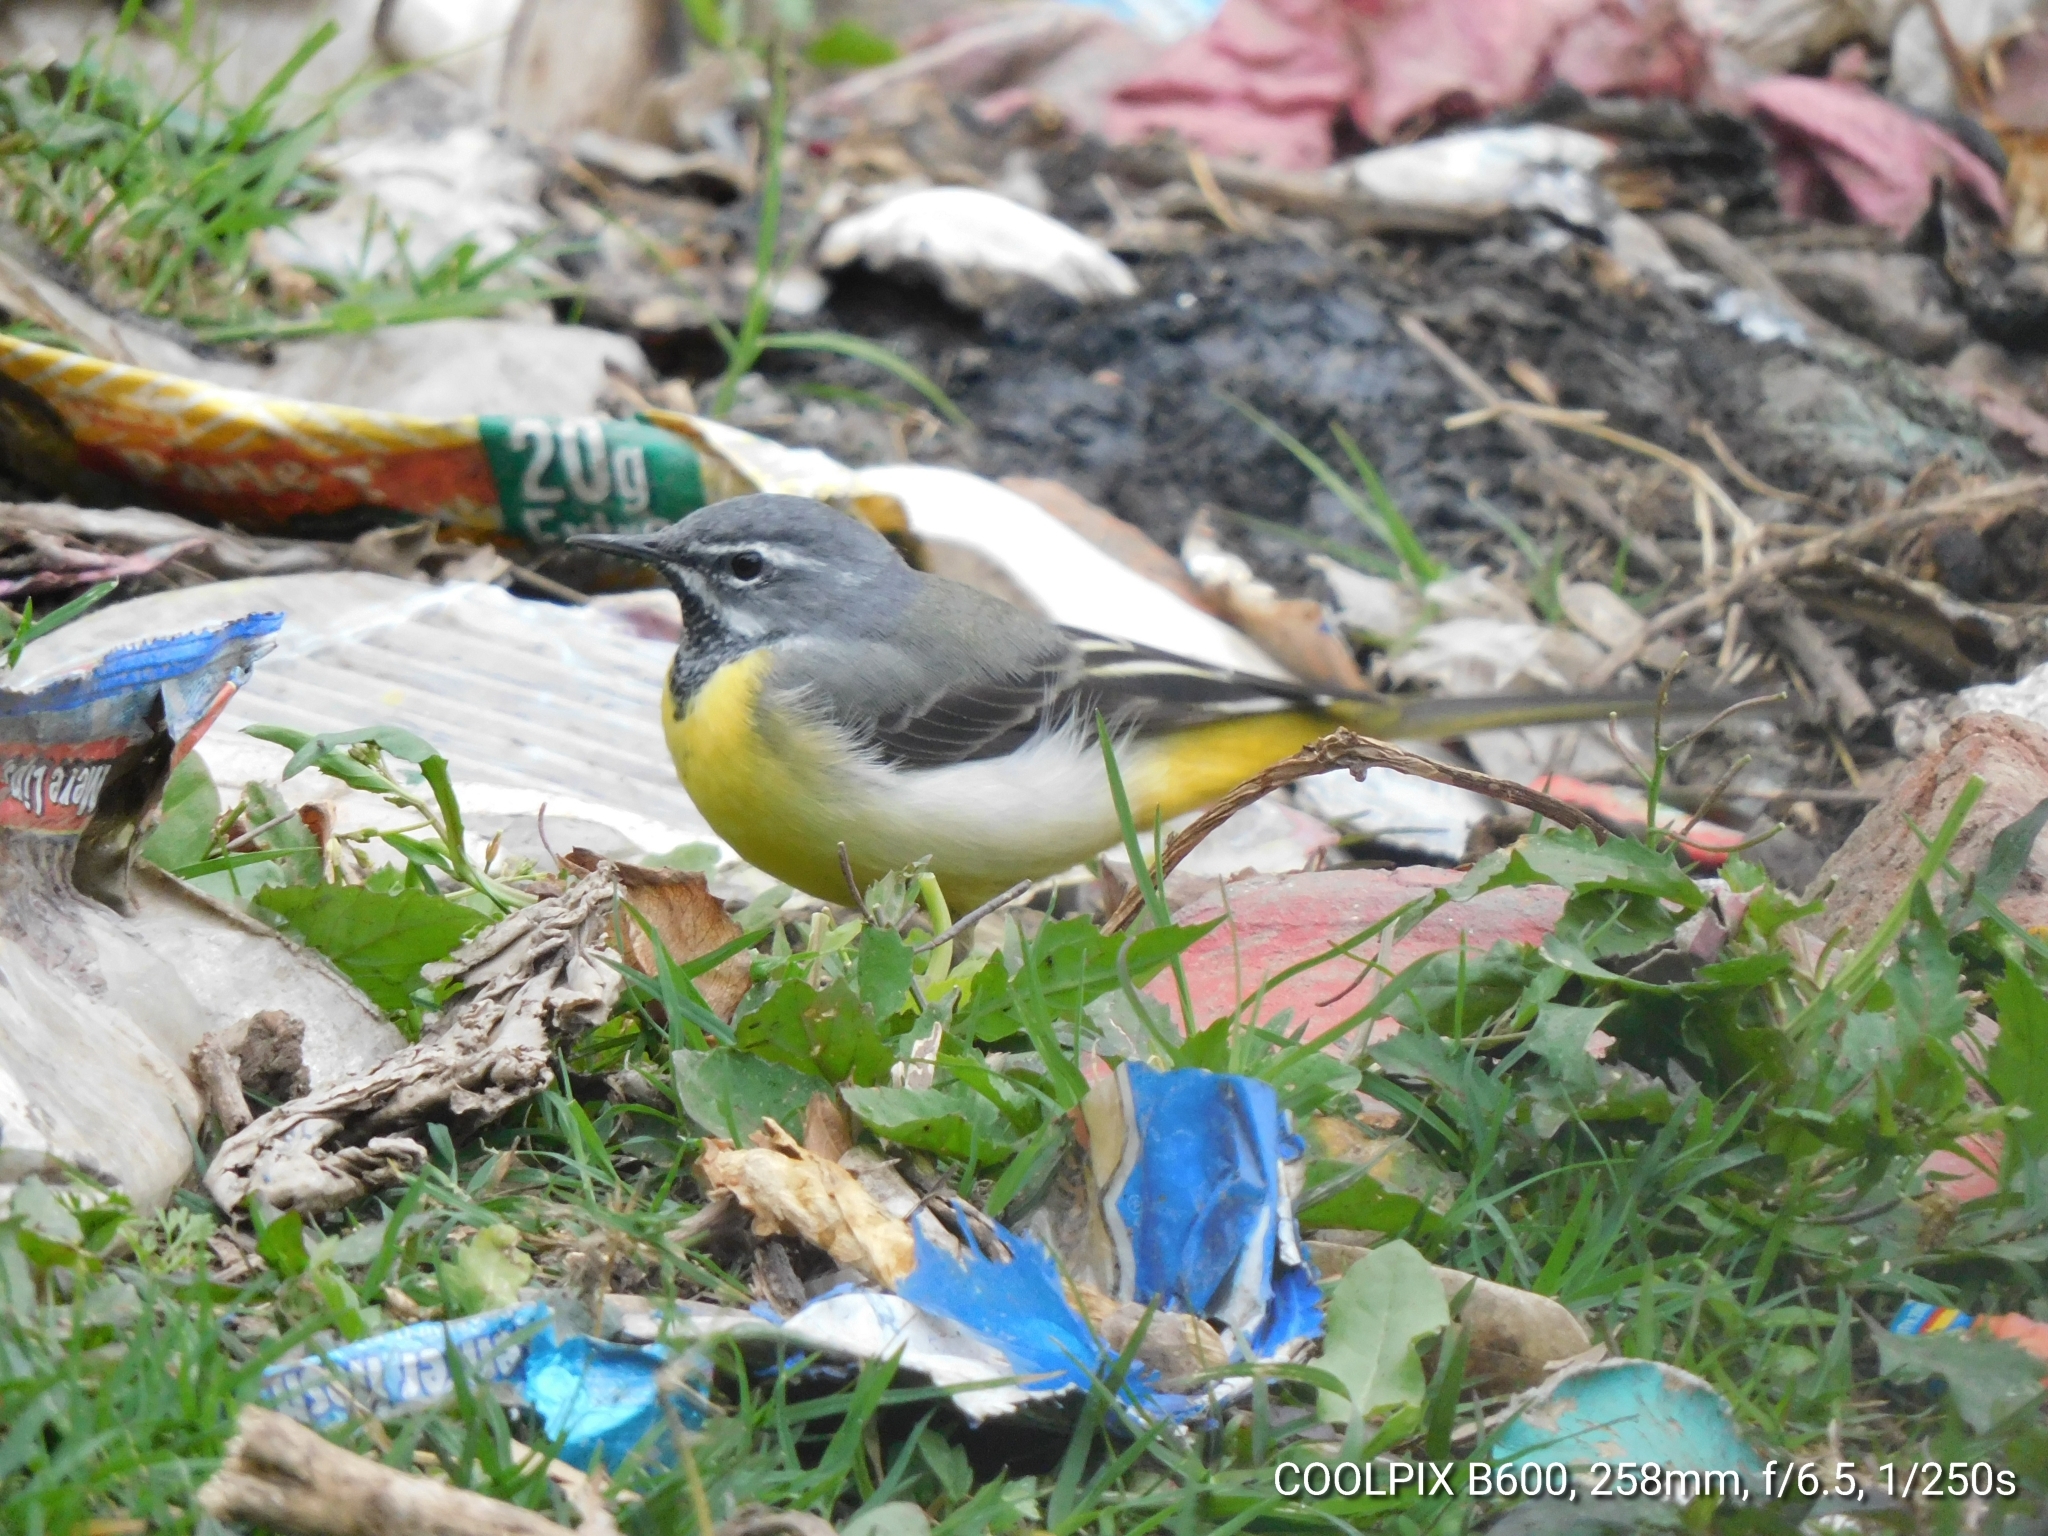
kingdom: Animalia
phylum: Chordata
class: Aves
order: Passeriformes
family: Motacillidae
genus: Motacilla
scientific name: Motacilla cinerea
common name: Grey wagtail
